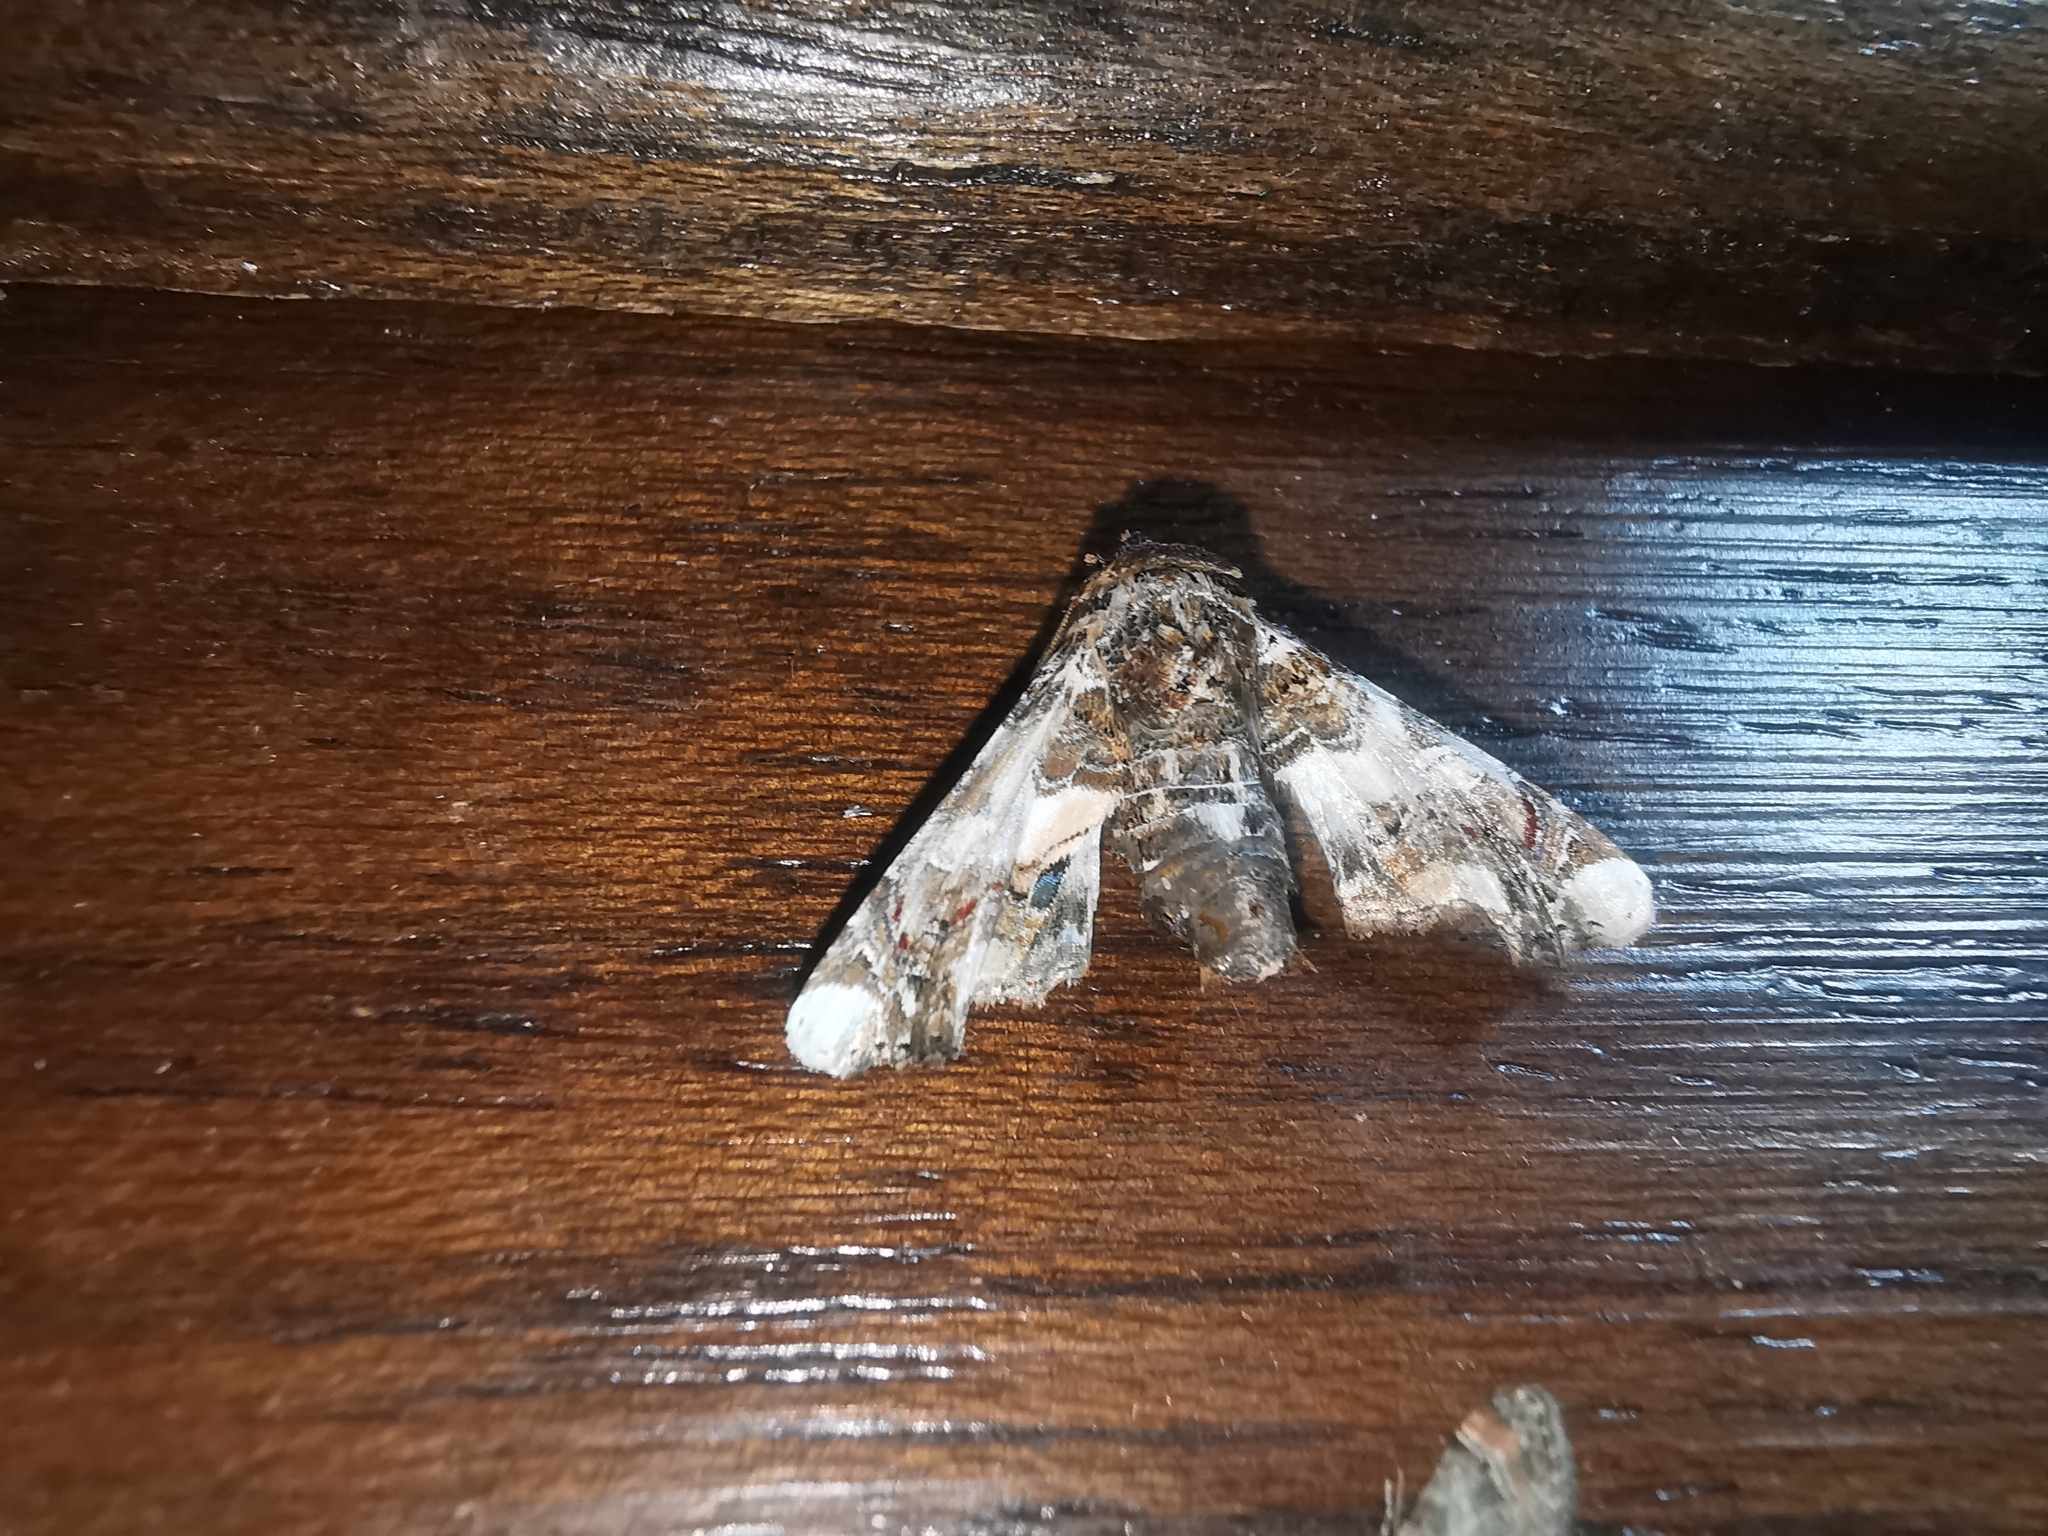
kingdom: Animalia
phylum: Arthropoda
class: Insecta
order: Lepidoptera
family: Euteliidae
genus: Eutelia
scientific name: Eutelia adulatrix
